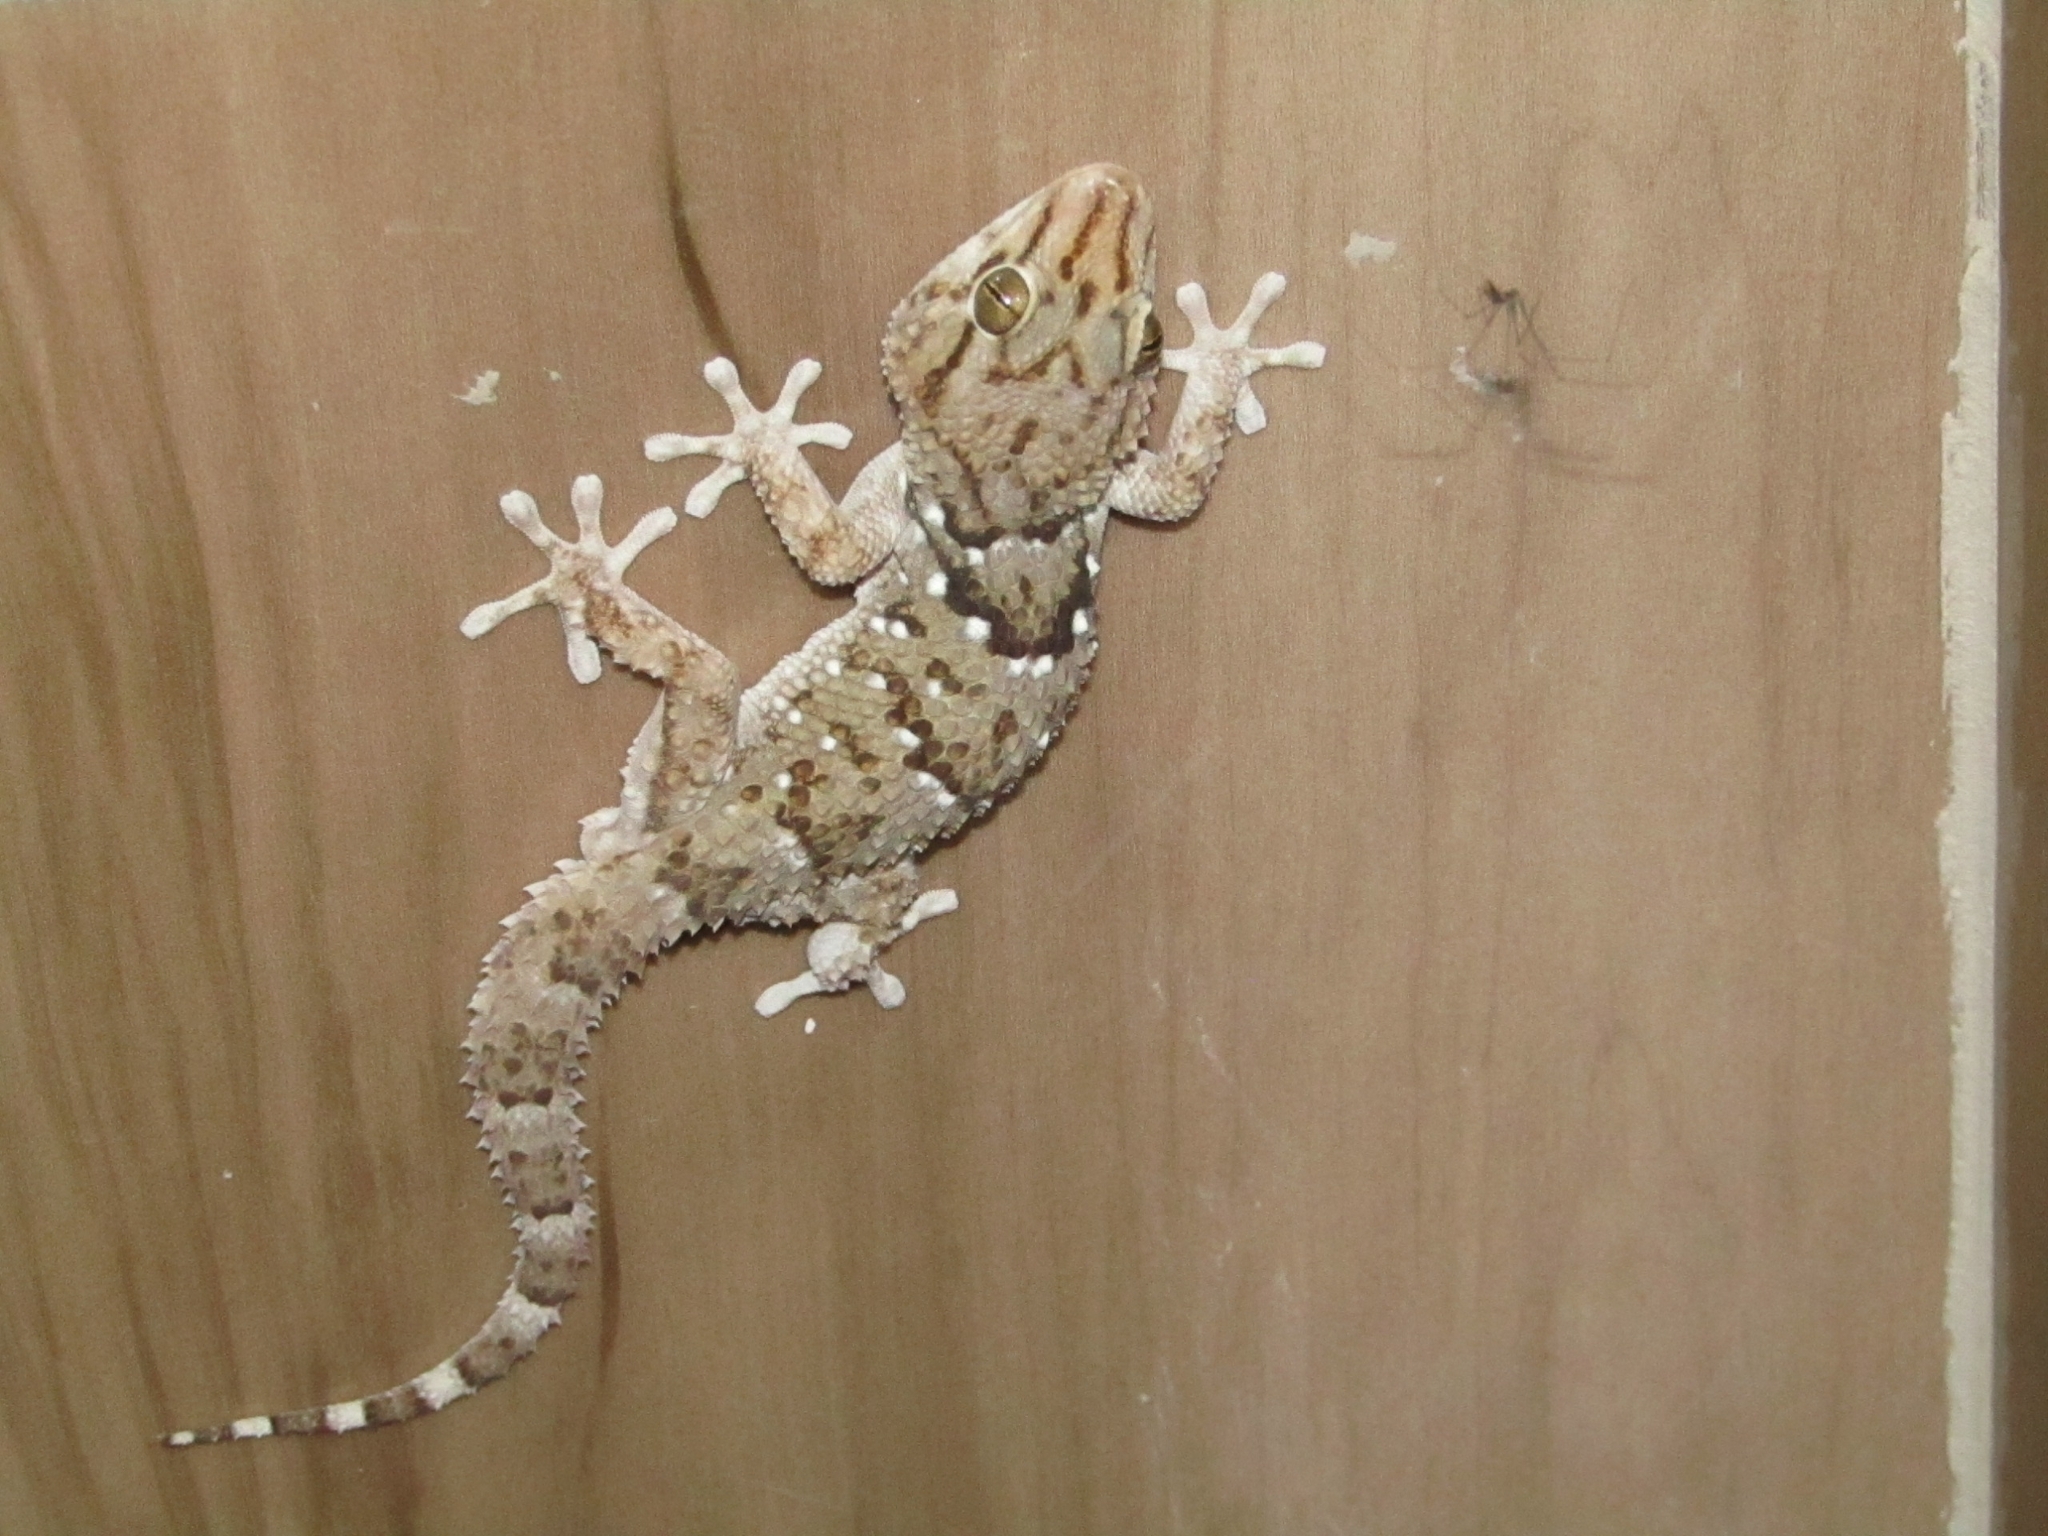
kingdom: Animalia
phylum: Chordata
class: Squamata
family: Gekkonidae
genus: Chondrodactylus
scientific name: Chondrodactylus laevigatus
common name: Fischer's thick-toed gecko
